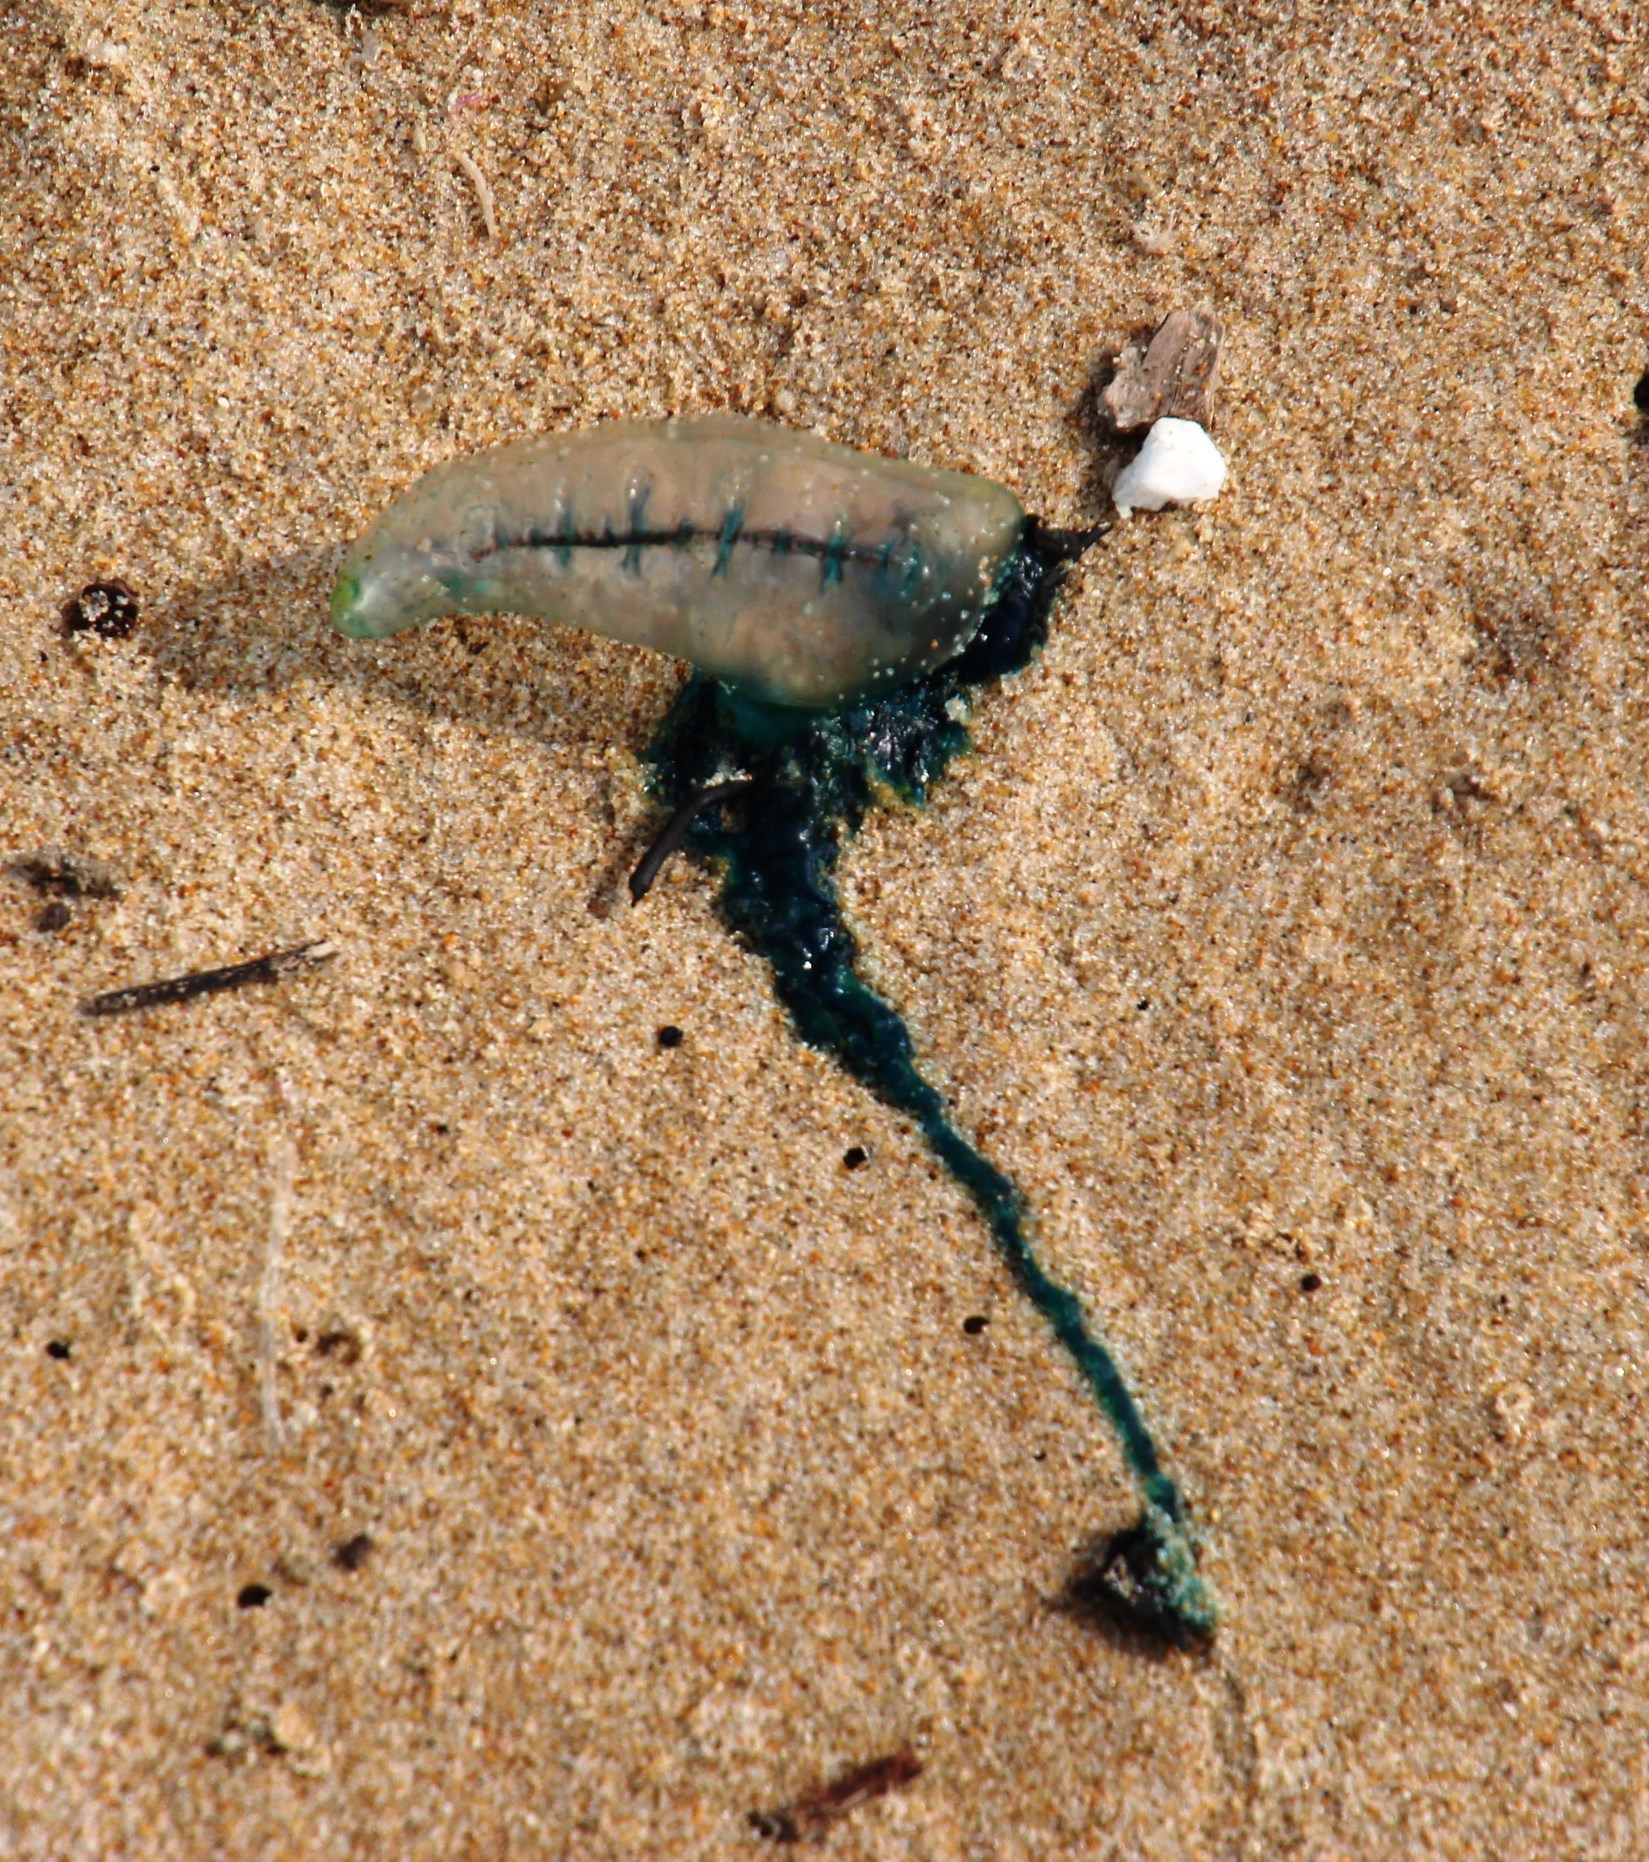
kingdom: Animalia
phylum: Cnidaria
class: Hydrozoa
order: Siphonophorae
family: Physaliidae
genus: Physalia
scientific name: Physalia physalis
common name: Portuguese man-of-war
